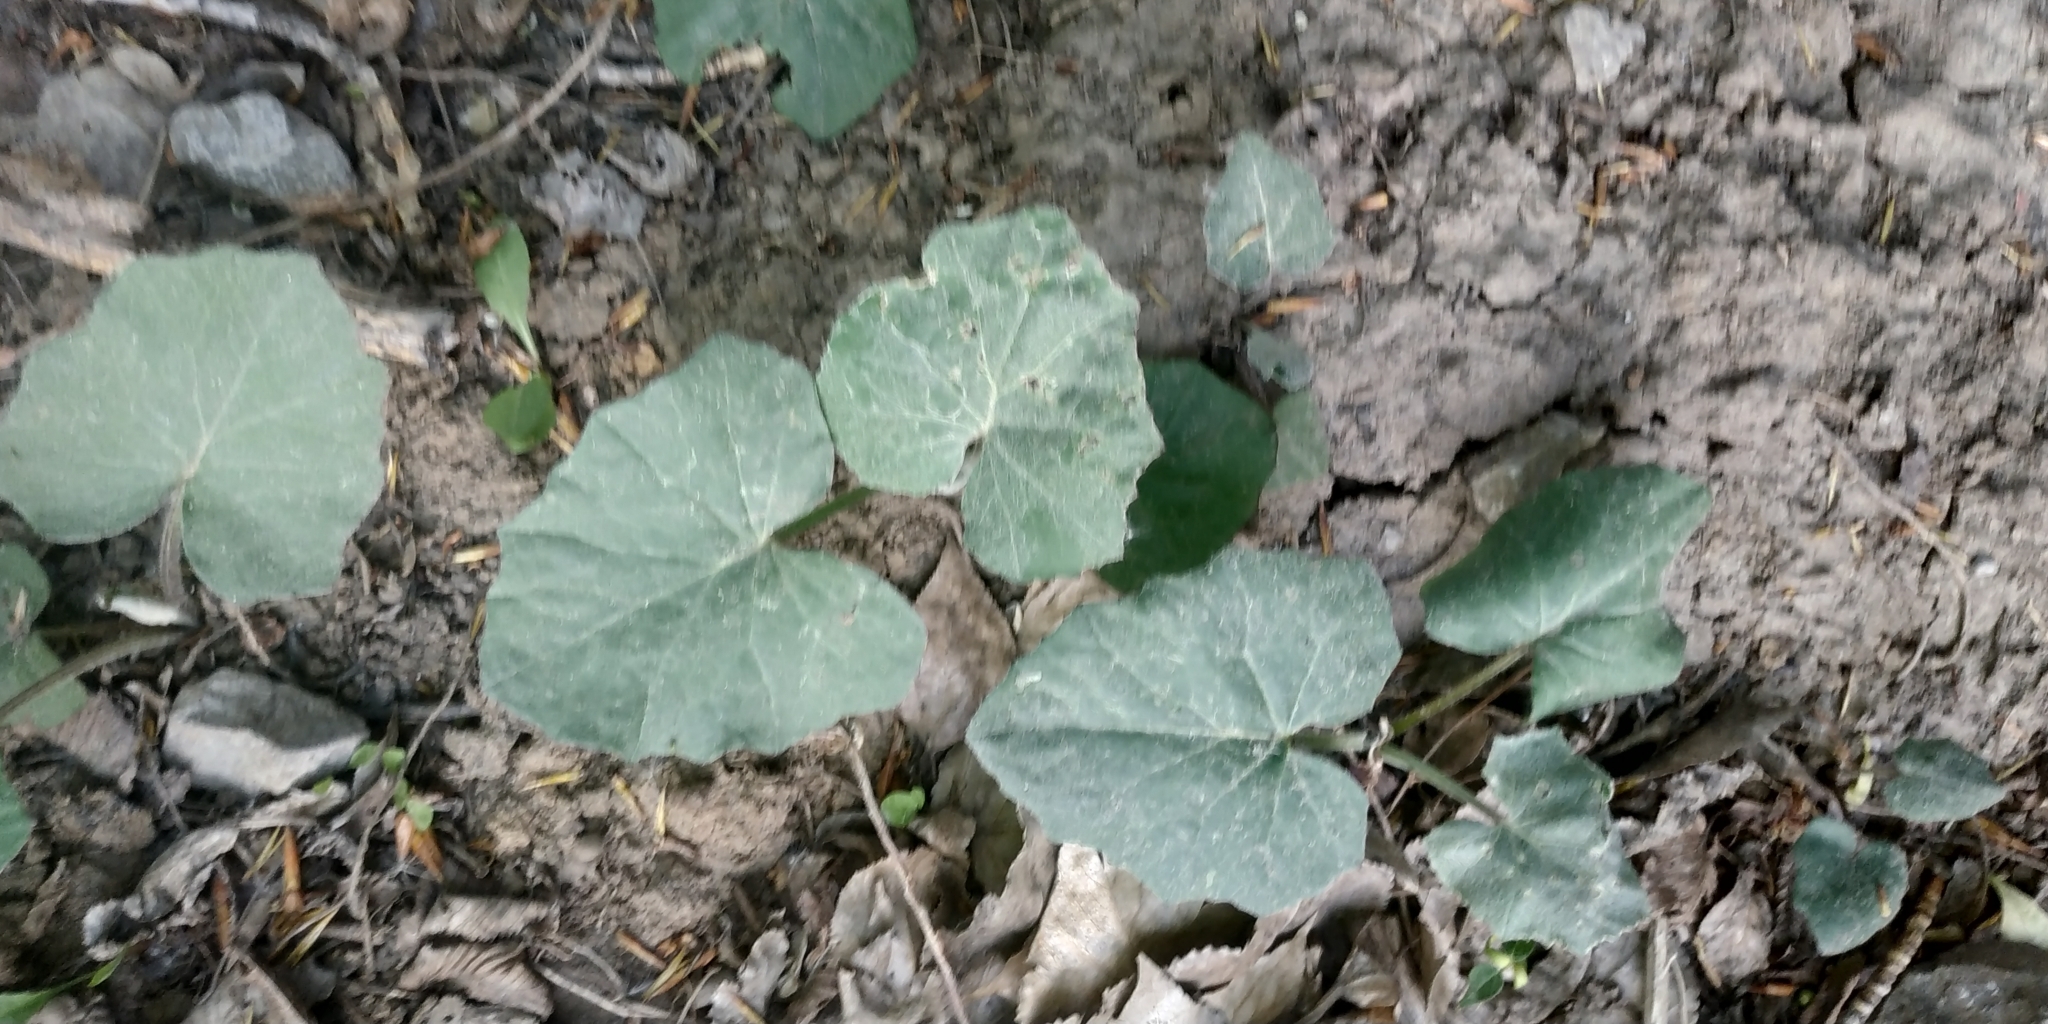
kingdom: Plantae
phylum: Tracheophyta
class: Magnoliopsida
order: Asterales
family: Asteraceae
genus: Tussilago
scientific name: Tussilago farfara
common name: Coltsfoot
